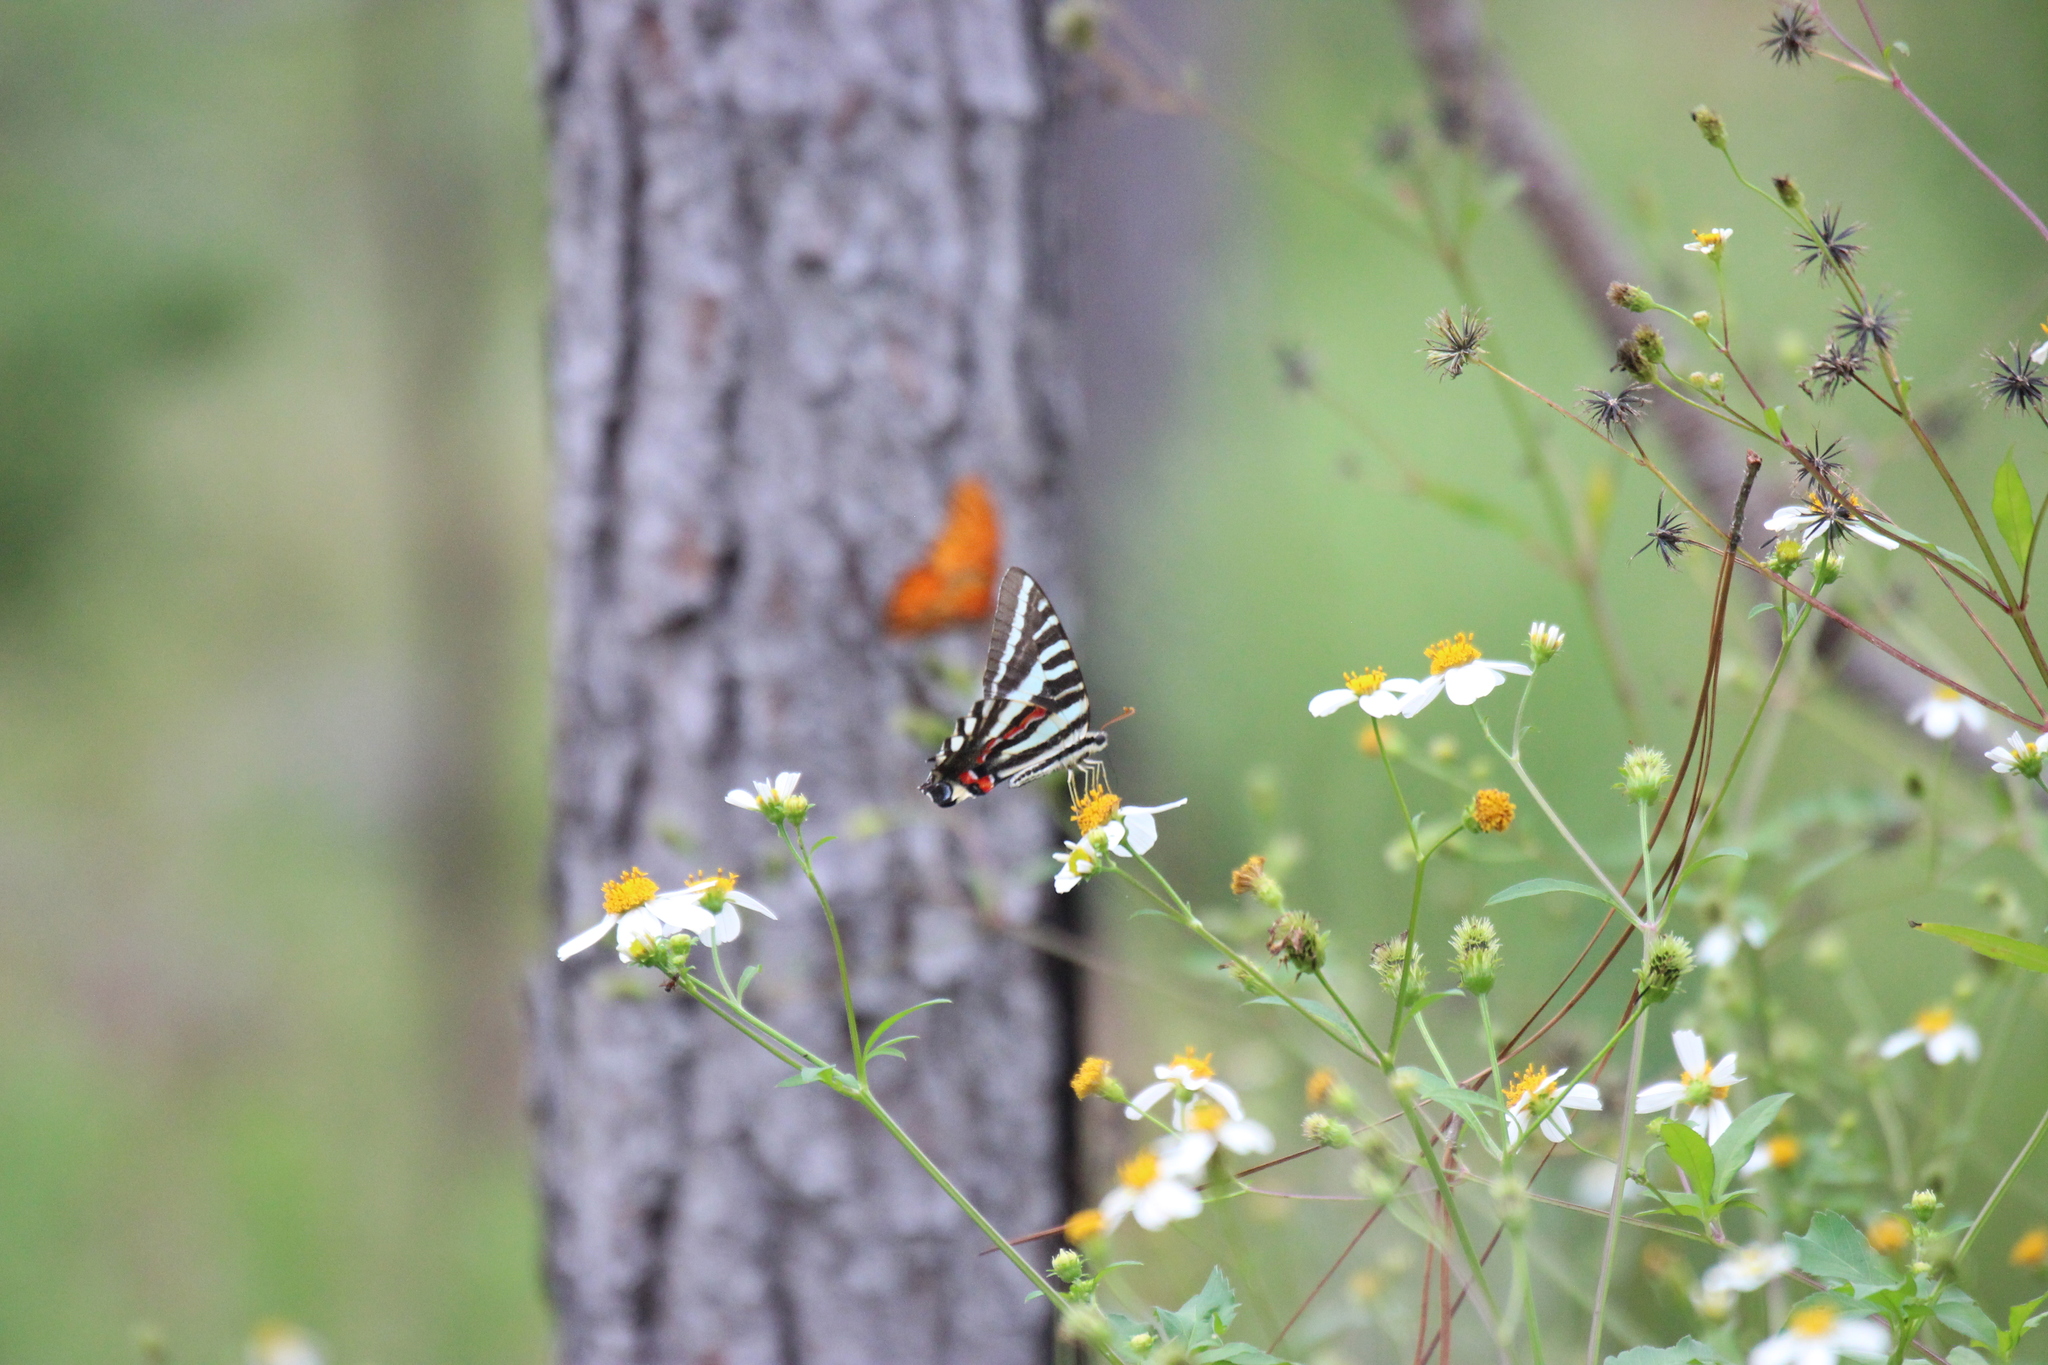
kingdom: Animalia
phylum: Arthropoda
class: Insecta
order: Lepidoptera
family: Papilionidae
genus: Protographium
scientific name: Protographium marcellus
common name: Zebra swallowtail
